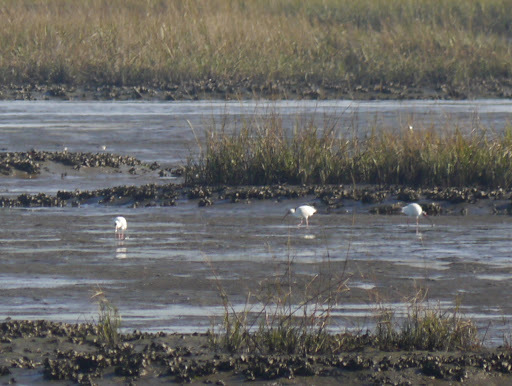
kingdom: Animalia
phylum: Chordata
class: Aves
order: Pelecaniformes
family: Threskiornithidae
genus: Eudocimus
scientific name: Eudocimus albus
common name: White ibis
